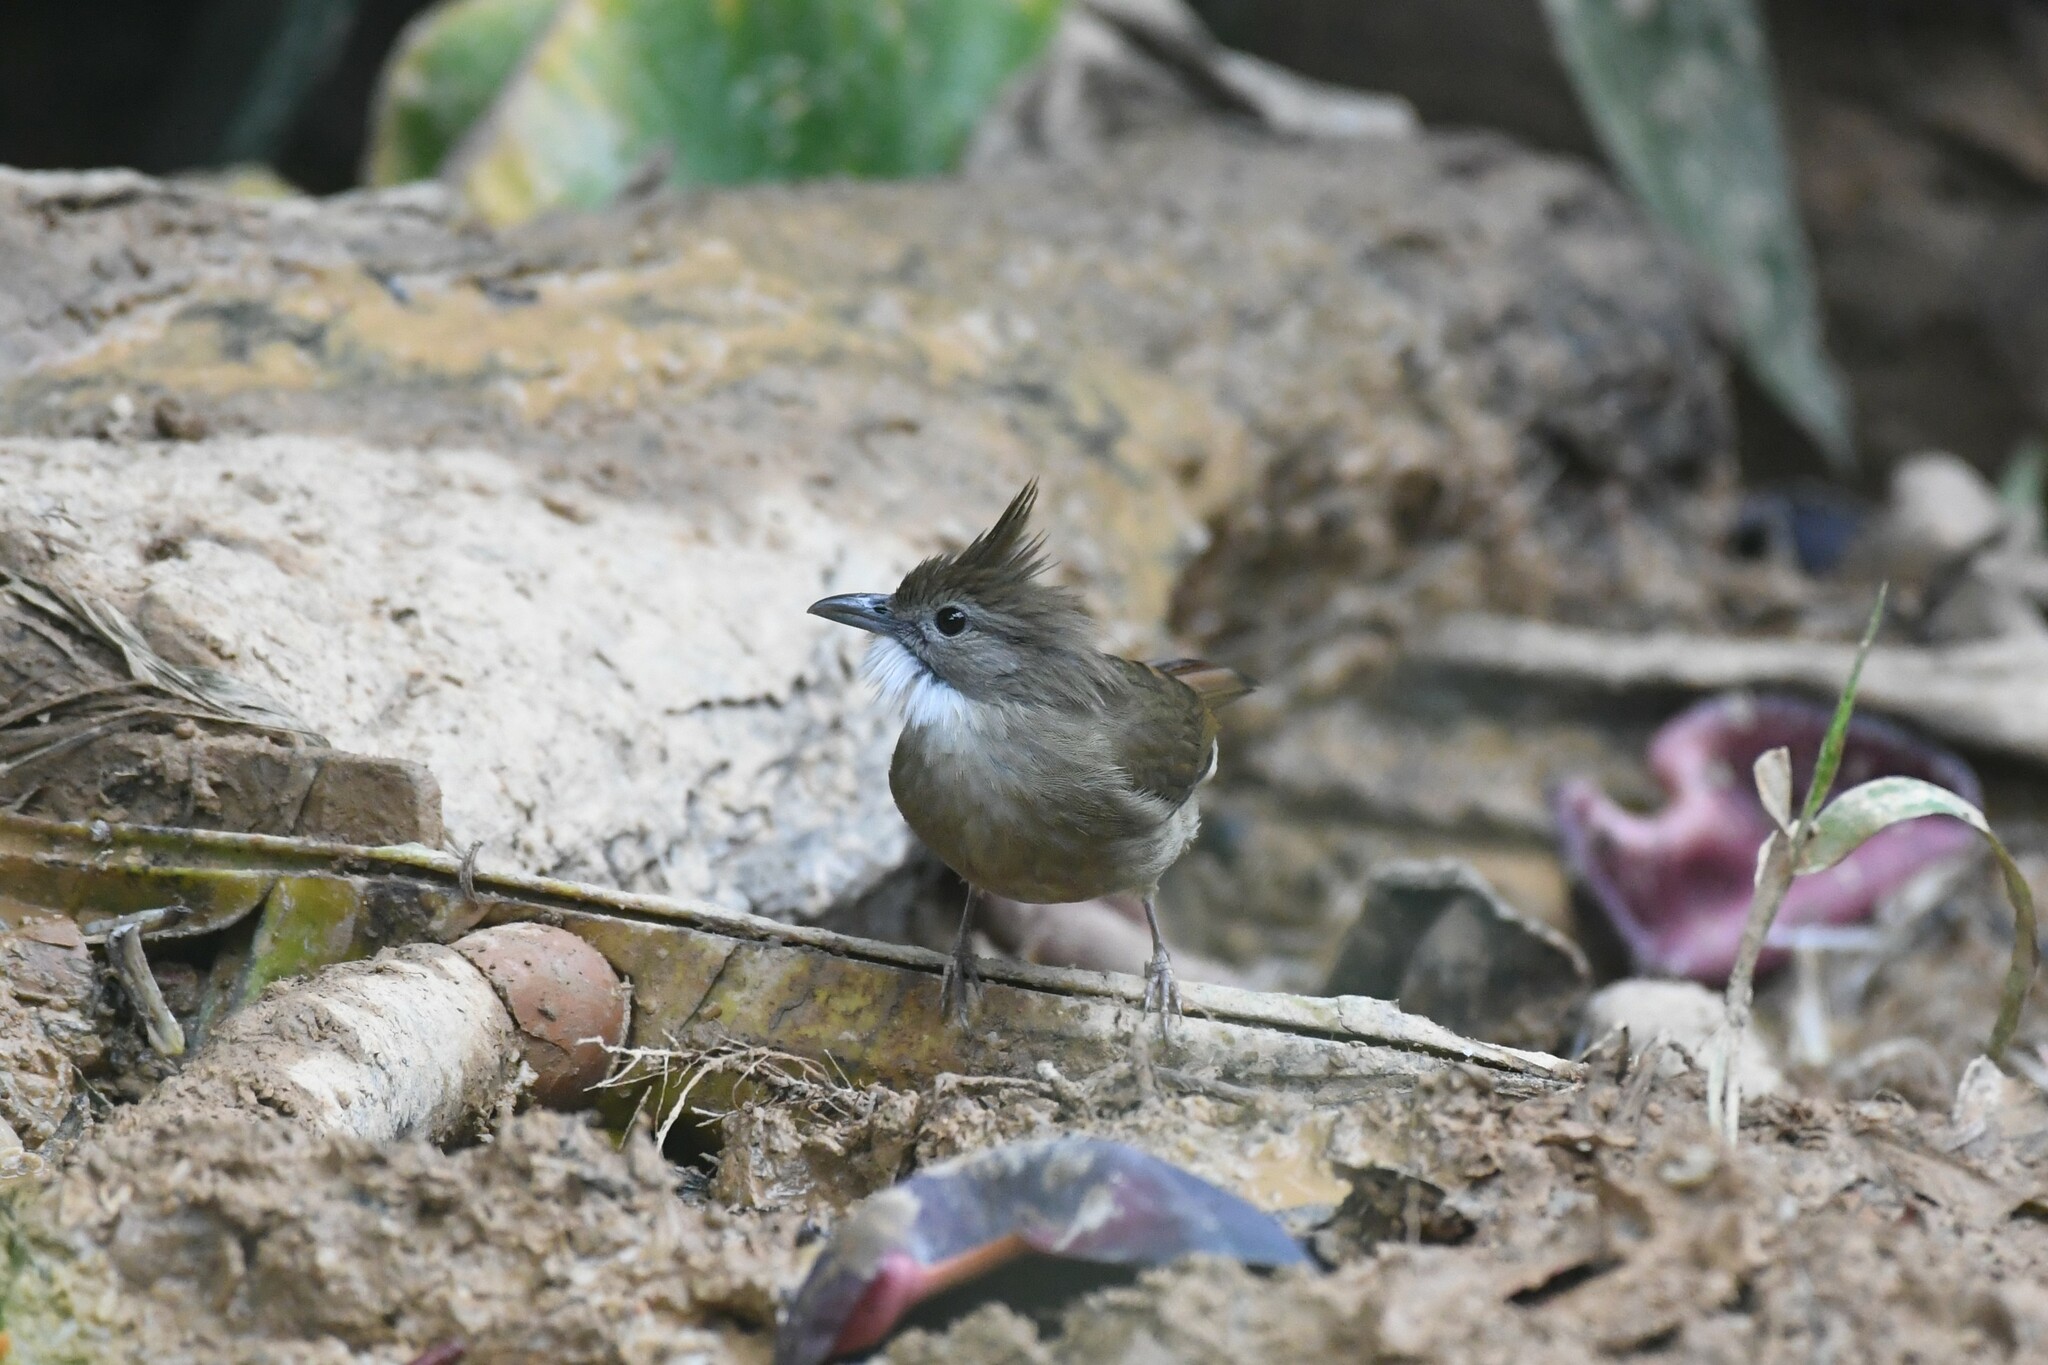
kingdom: Animalia
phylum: Chordata
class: Aves
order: Passeriformes
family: Pycnonotidae
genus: Alophoixus
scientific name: Alophoixus ochraceus
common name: Ochraceous bulbul
